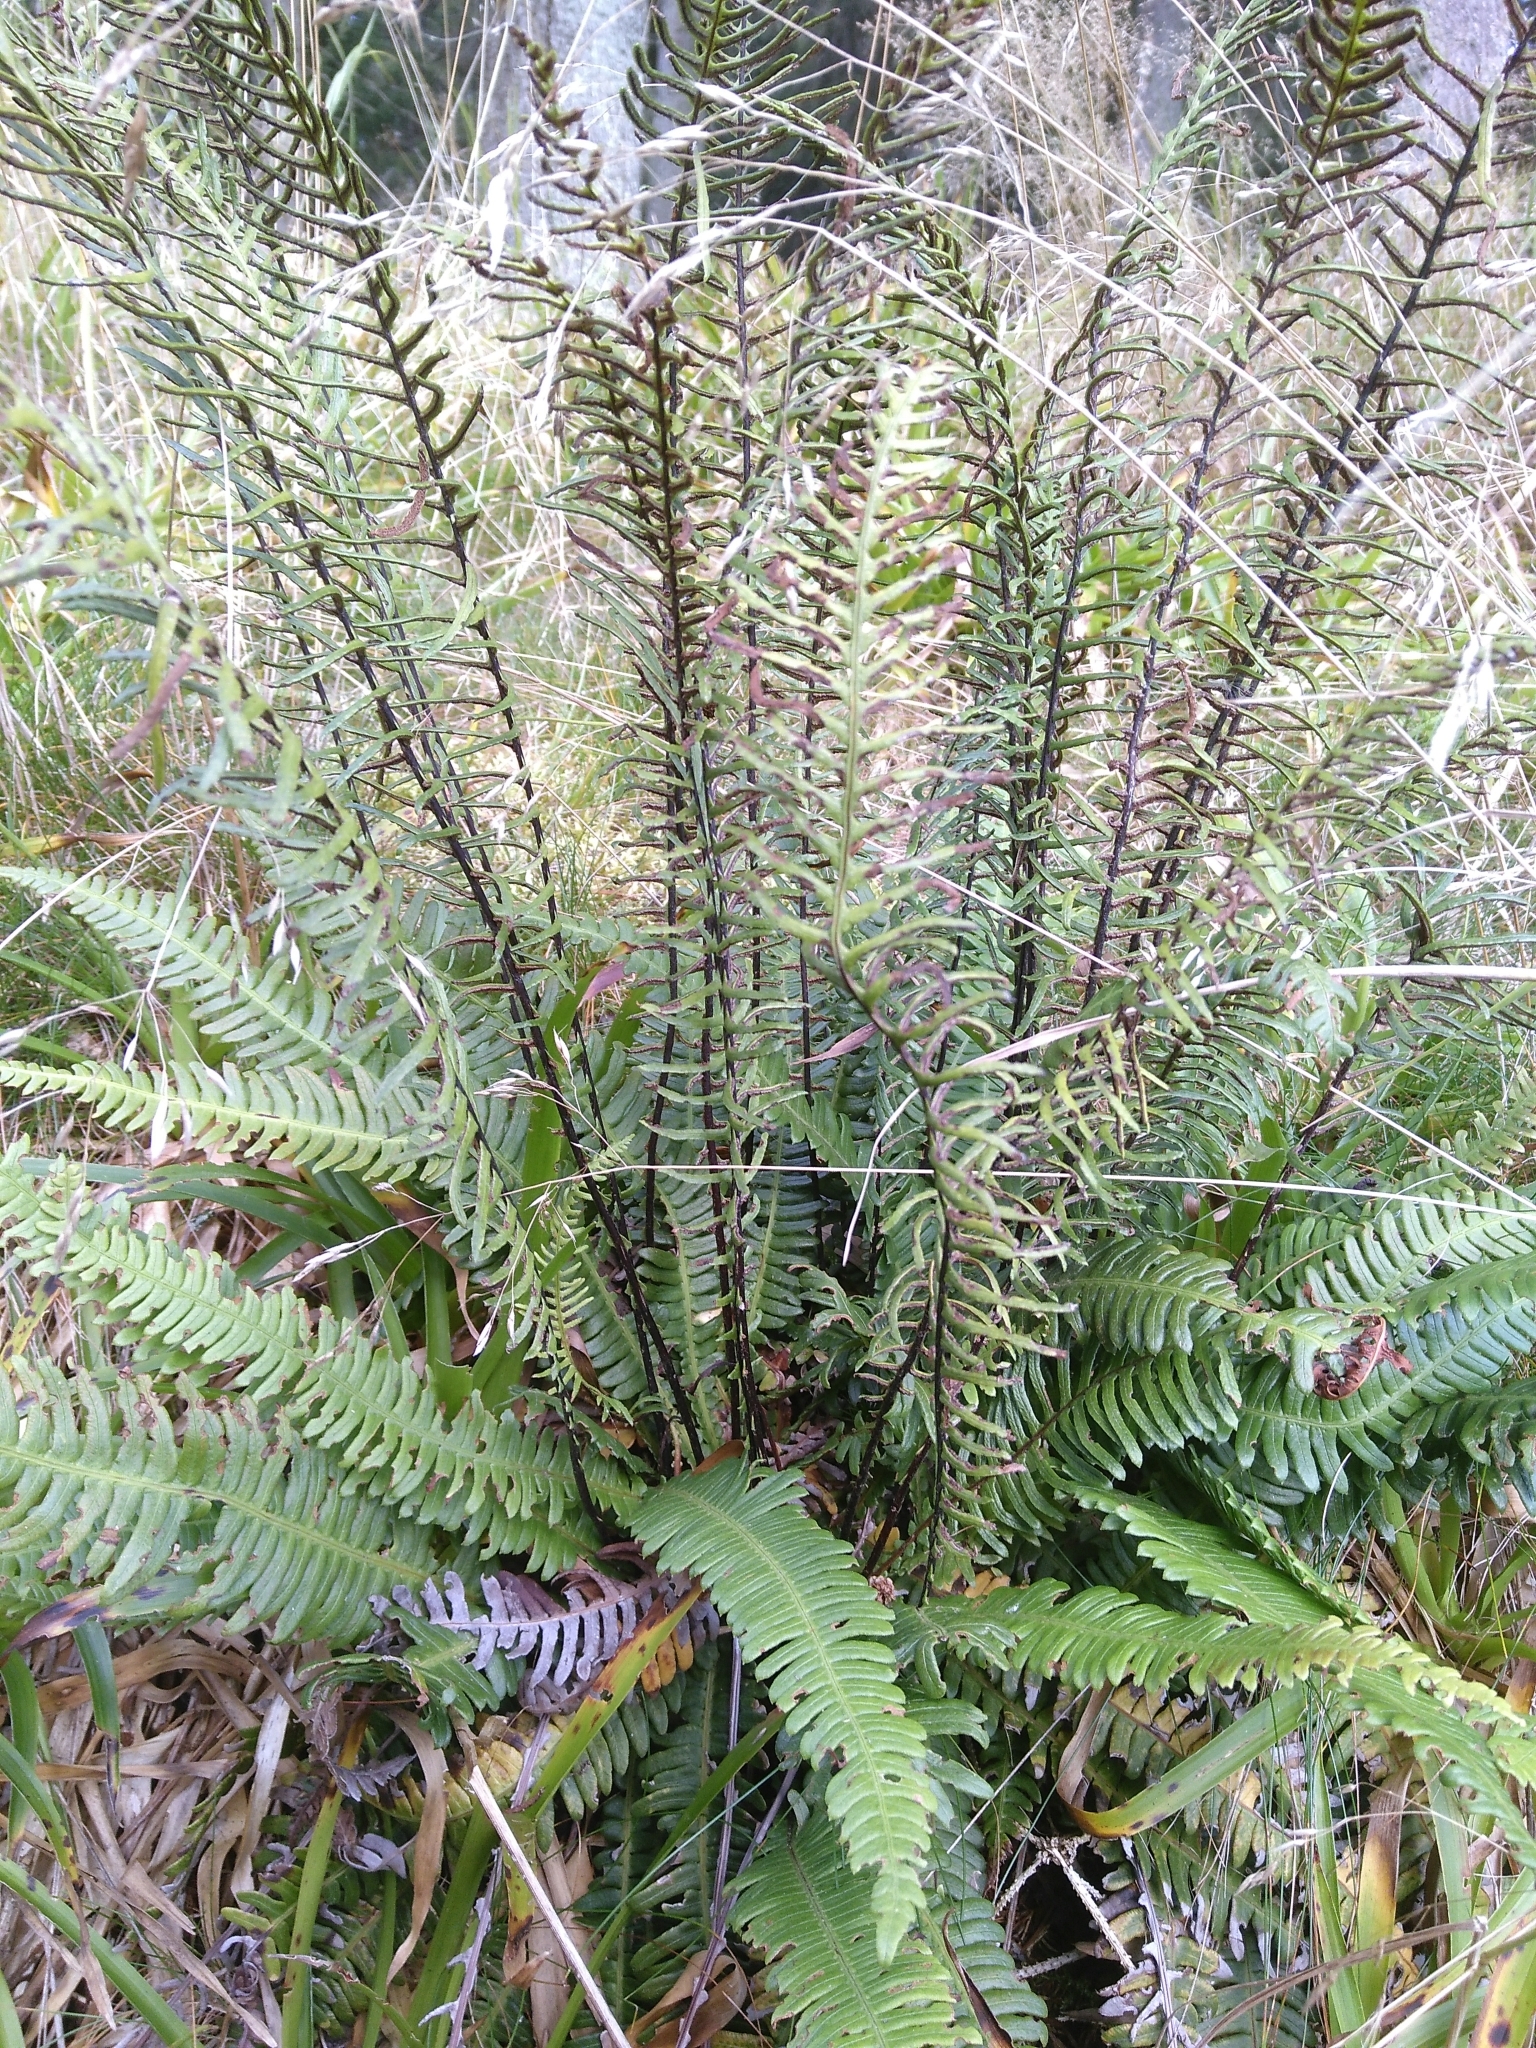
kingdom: Plantae
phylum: Tracheophyta
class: Polypodiopsida
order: Polypodiales
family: Blechnaceae
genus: Struthiopteris
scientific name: Struthiopteris spicant
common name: Deer fern
